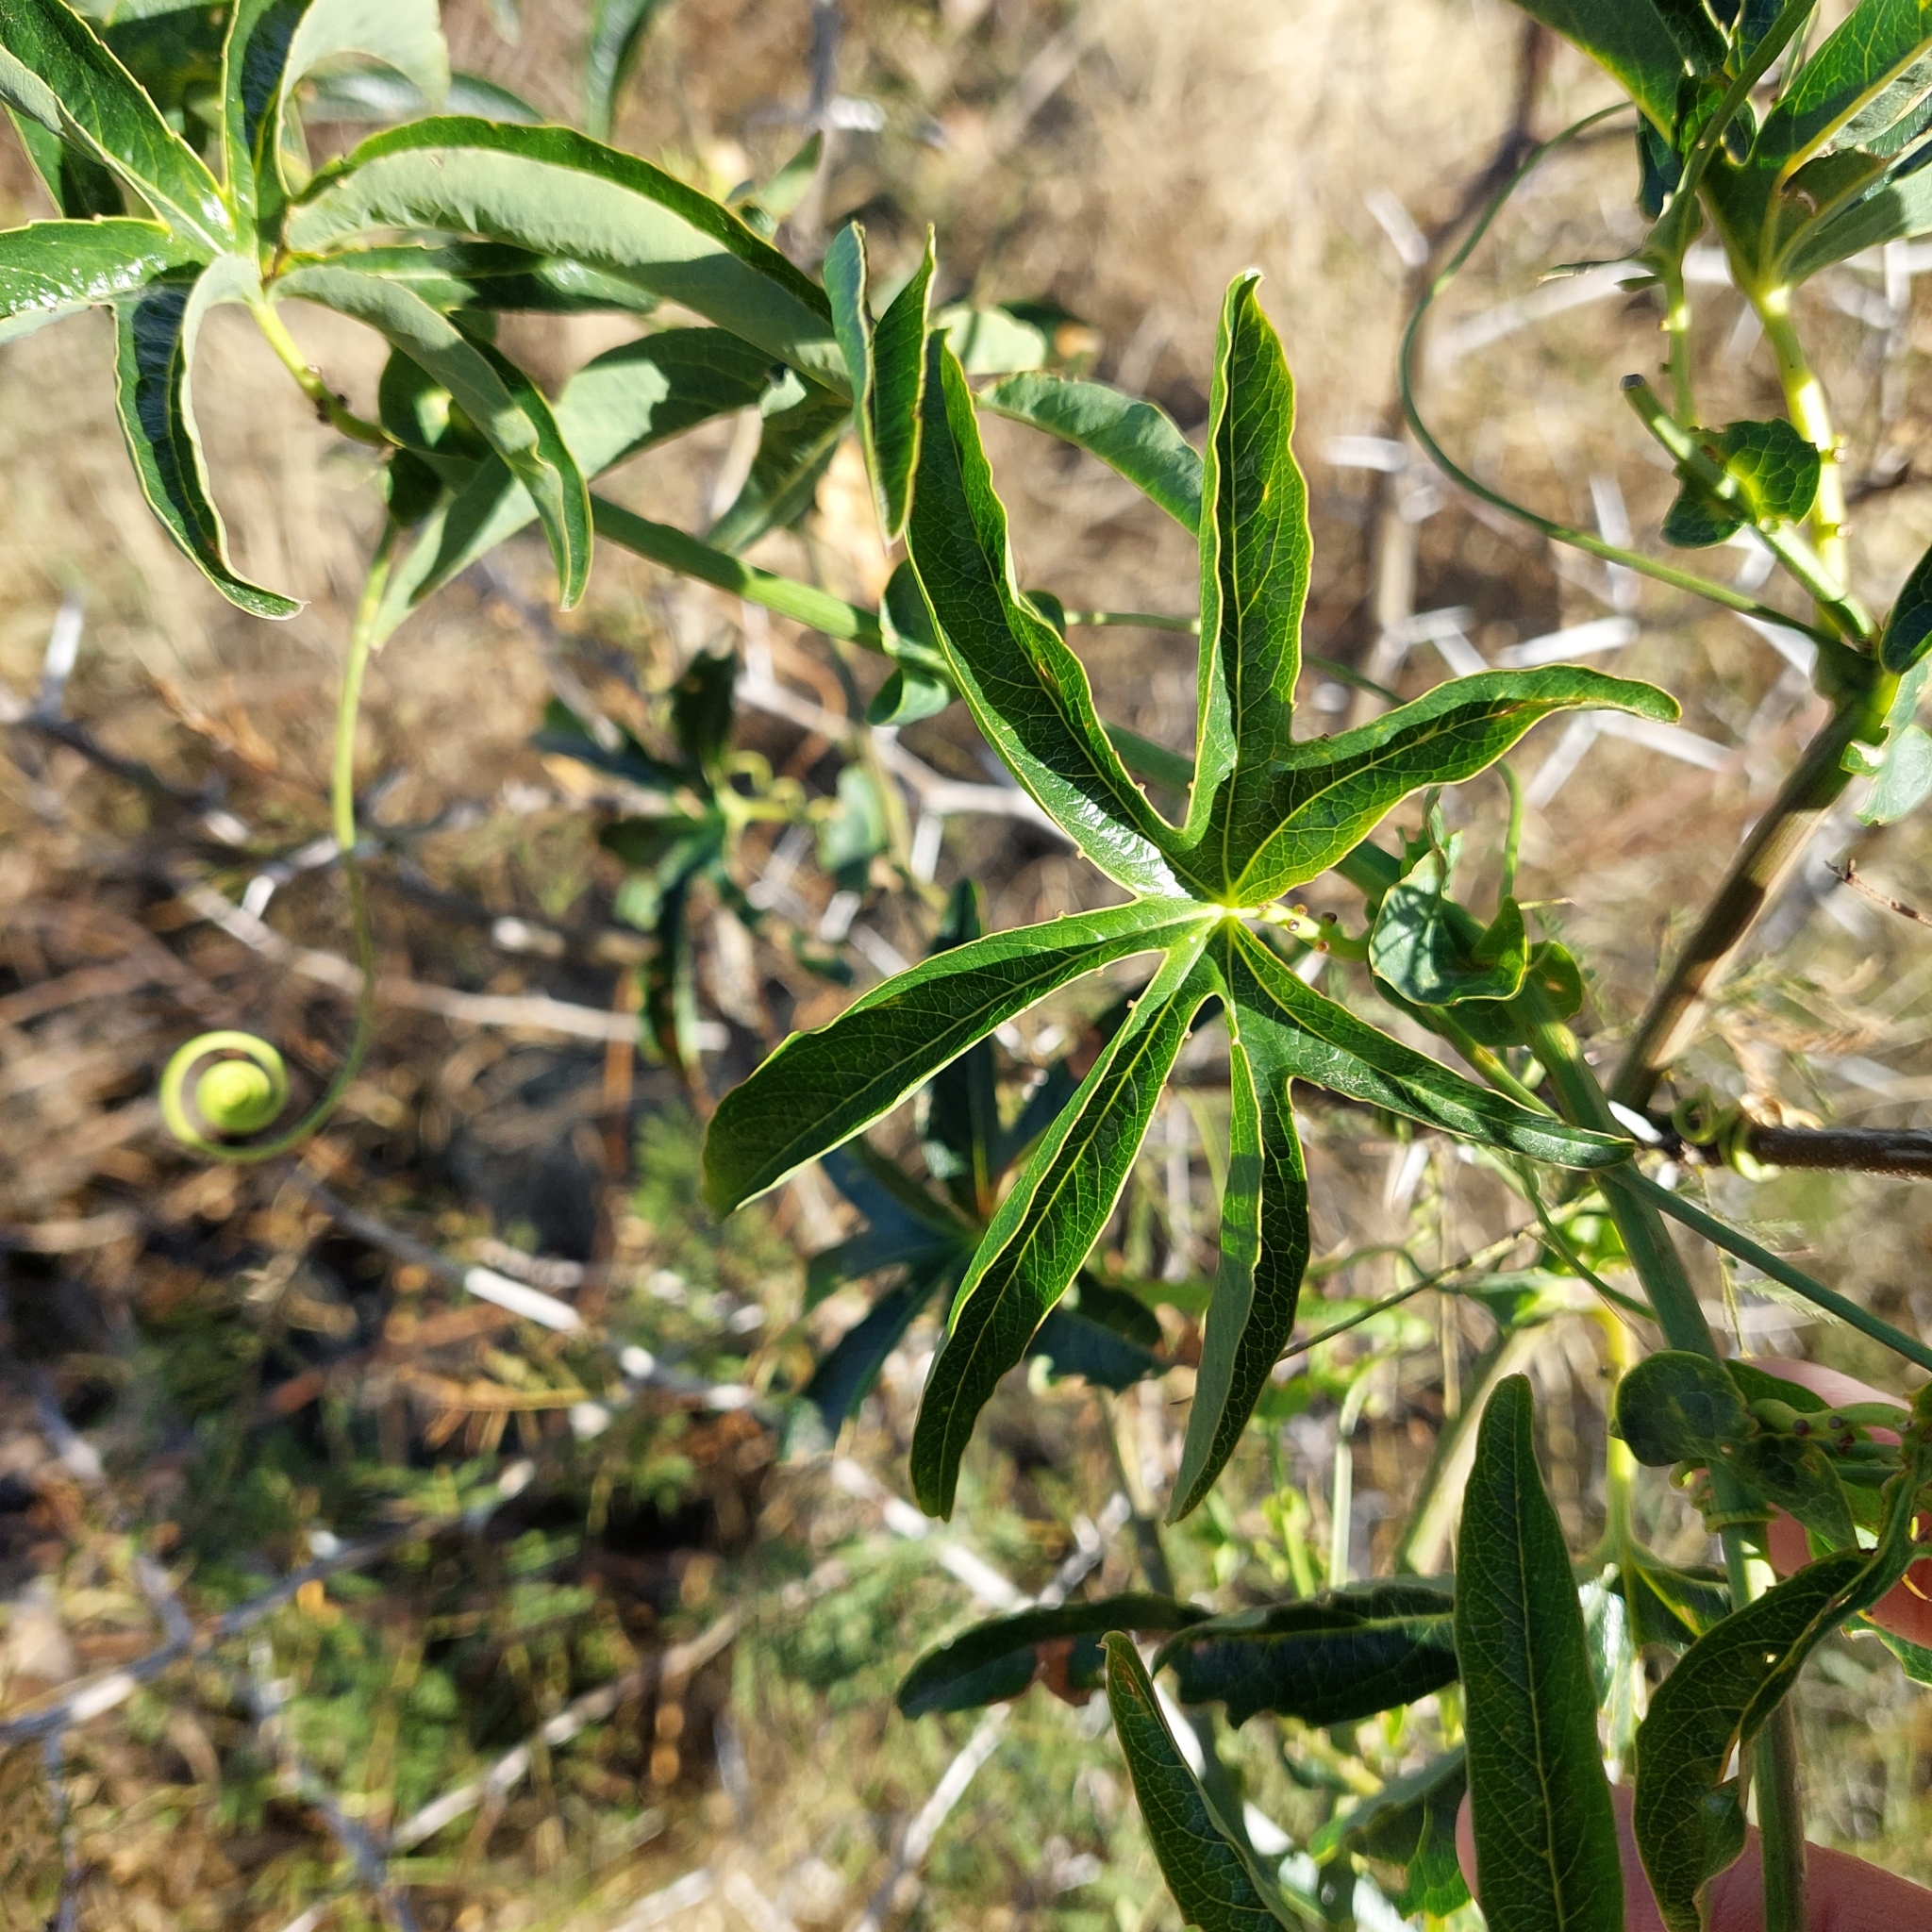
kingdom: Plantae
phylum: Tracheophyta
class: Magnoliopsida
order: Malpighiales
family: Passifloraceae
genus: Passiflora
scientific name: Passiflora caerulea
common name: Blue passionflower
